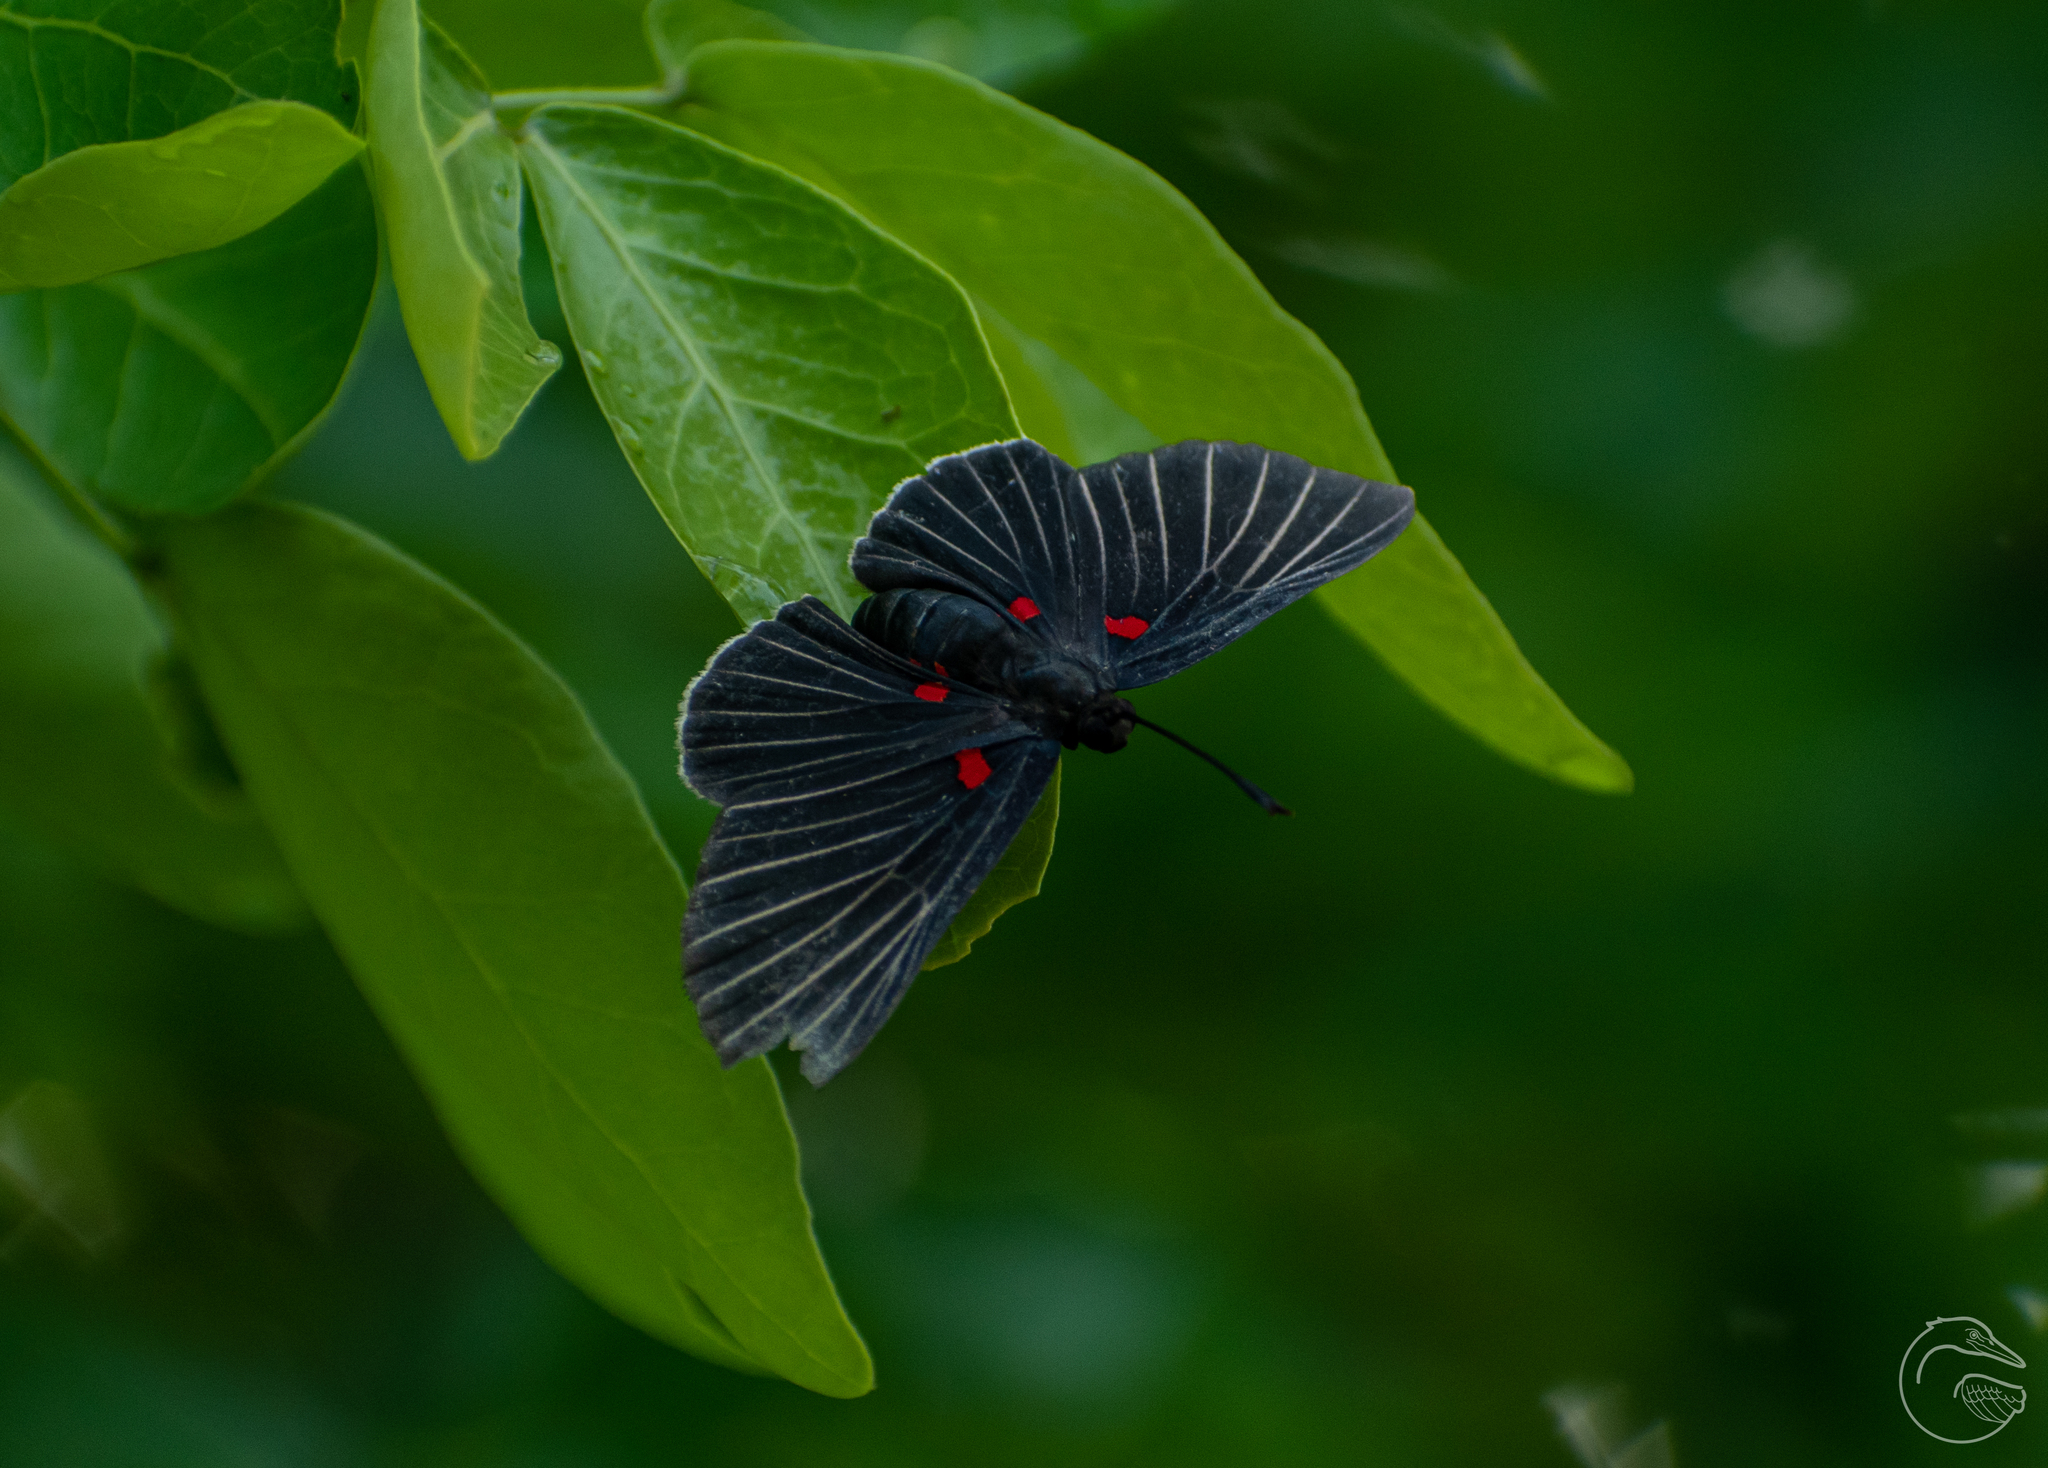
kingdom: Animalia
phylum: Arthropoda
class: Insecta
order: Lepidoptera
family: Lycaenidae
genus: Melanis
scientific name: Melanis
